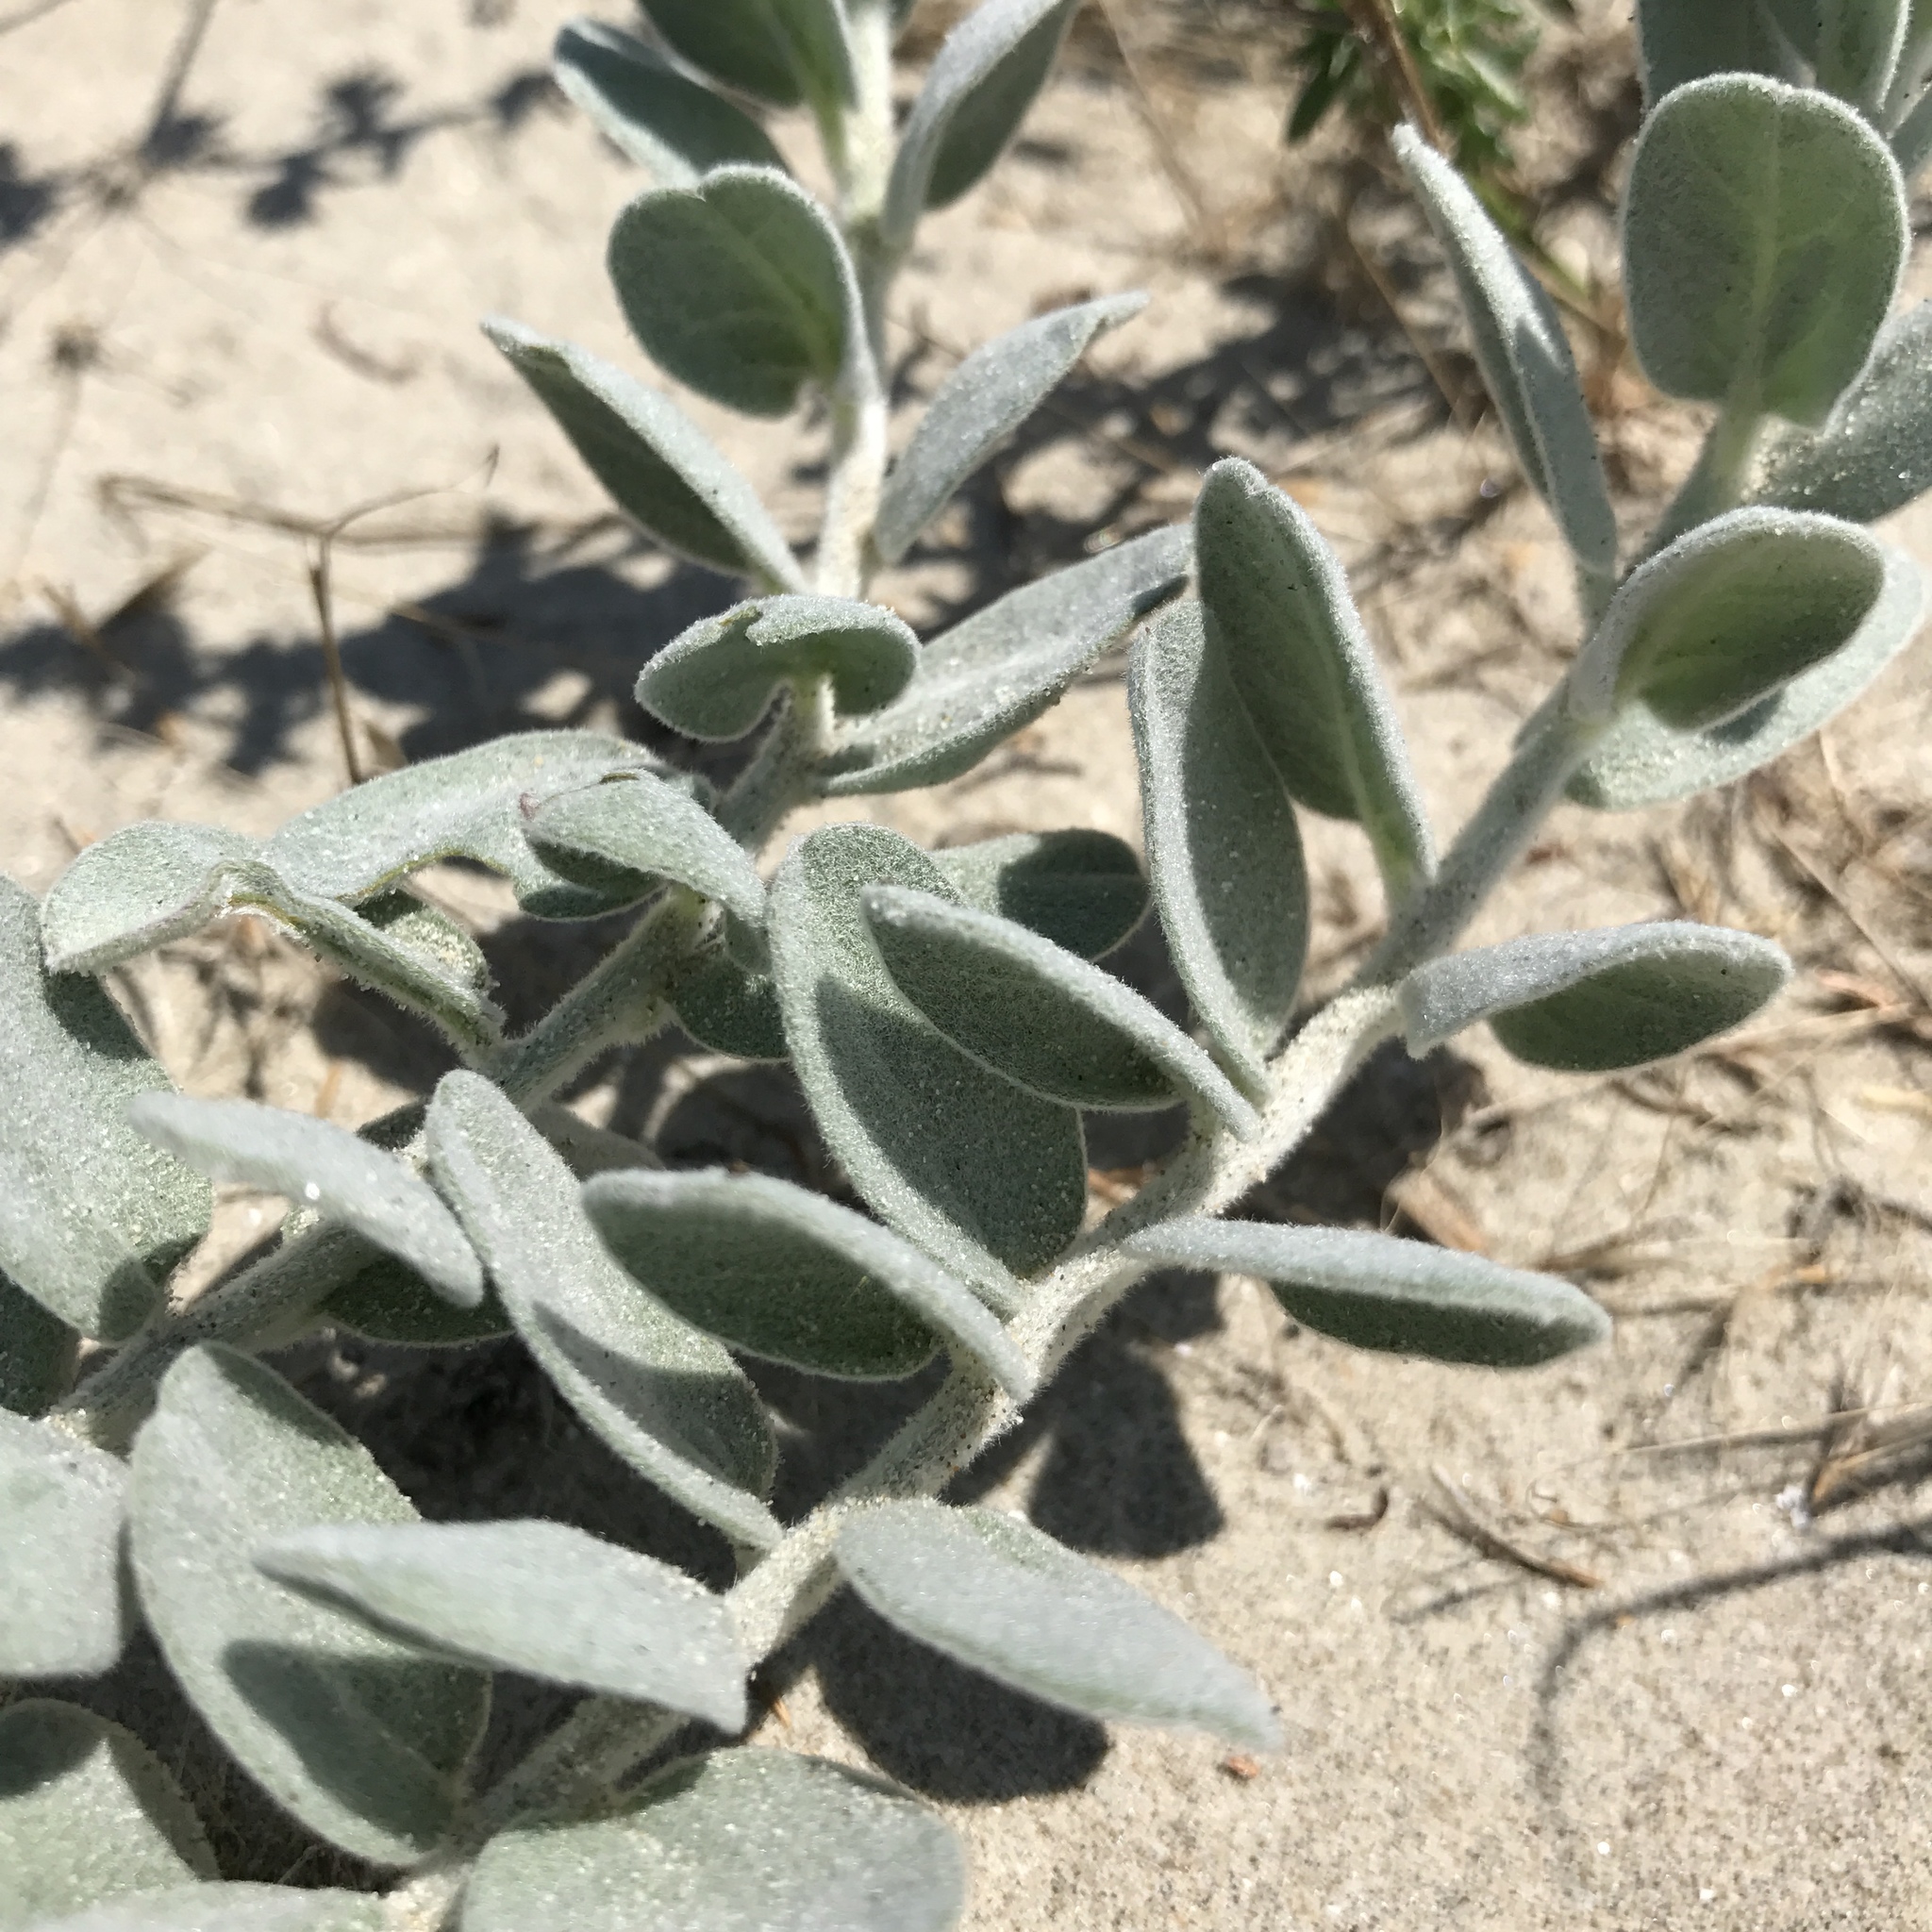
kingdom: Plantae
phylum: Tracheophyta
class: Magnoliopsida
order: Solanales
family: Convolvulaceae
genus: Convolvulus
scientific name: Convolvulus persicus
